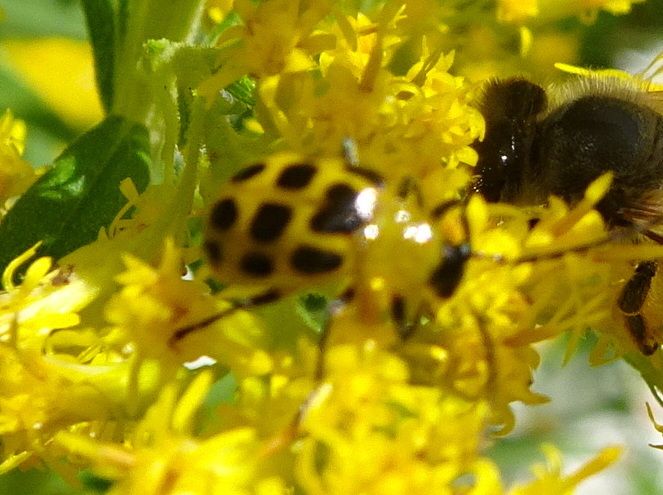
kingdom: Animalia
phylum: Arthropoda
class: Insecta
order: Coleoptera
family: Chrysomelidae
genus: Diabrotica
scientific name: Diabrotica undecimpunctata
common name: Spotted cucumber beetle
